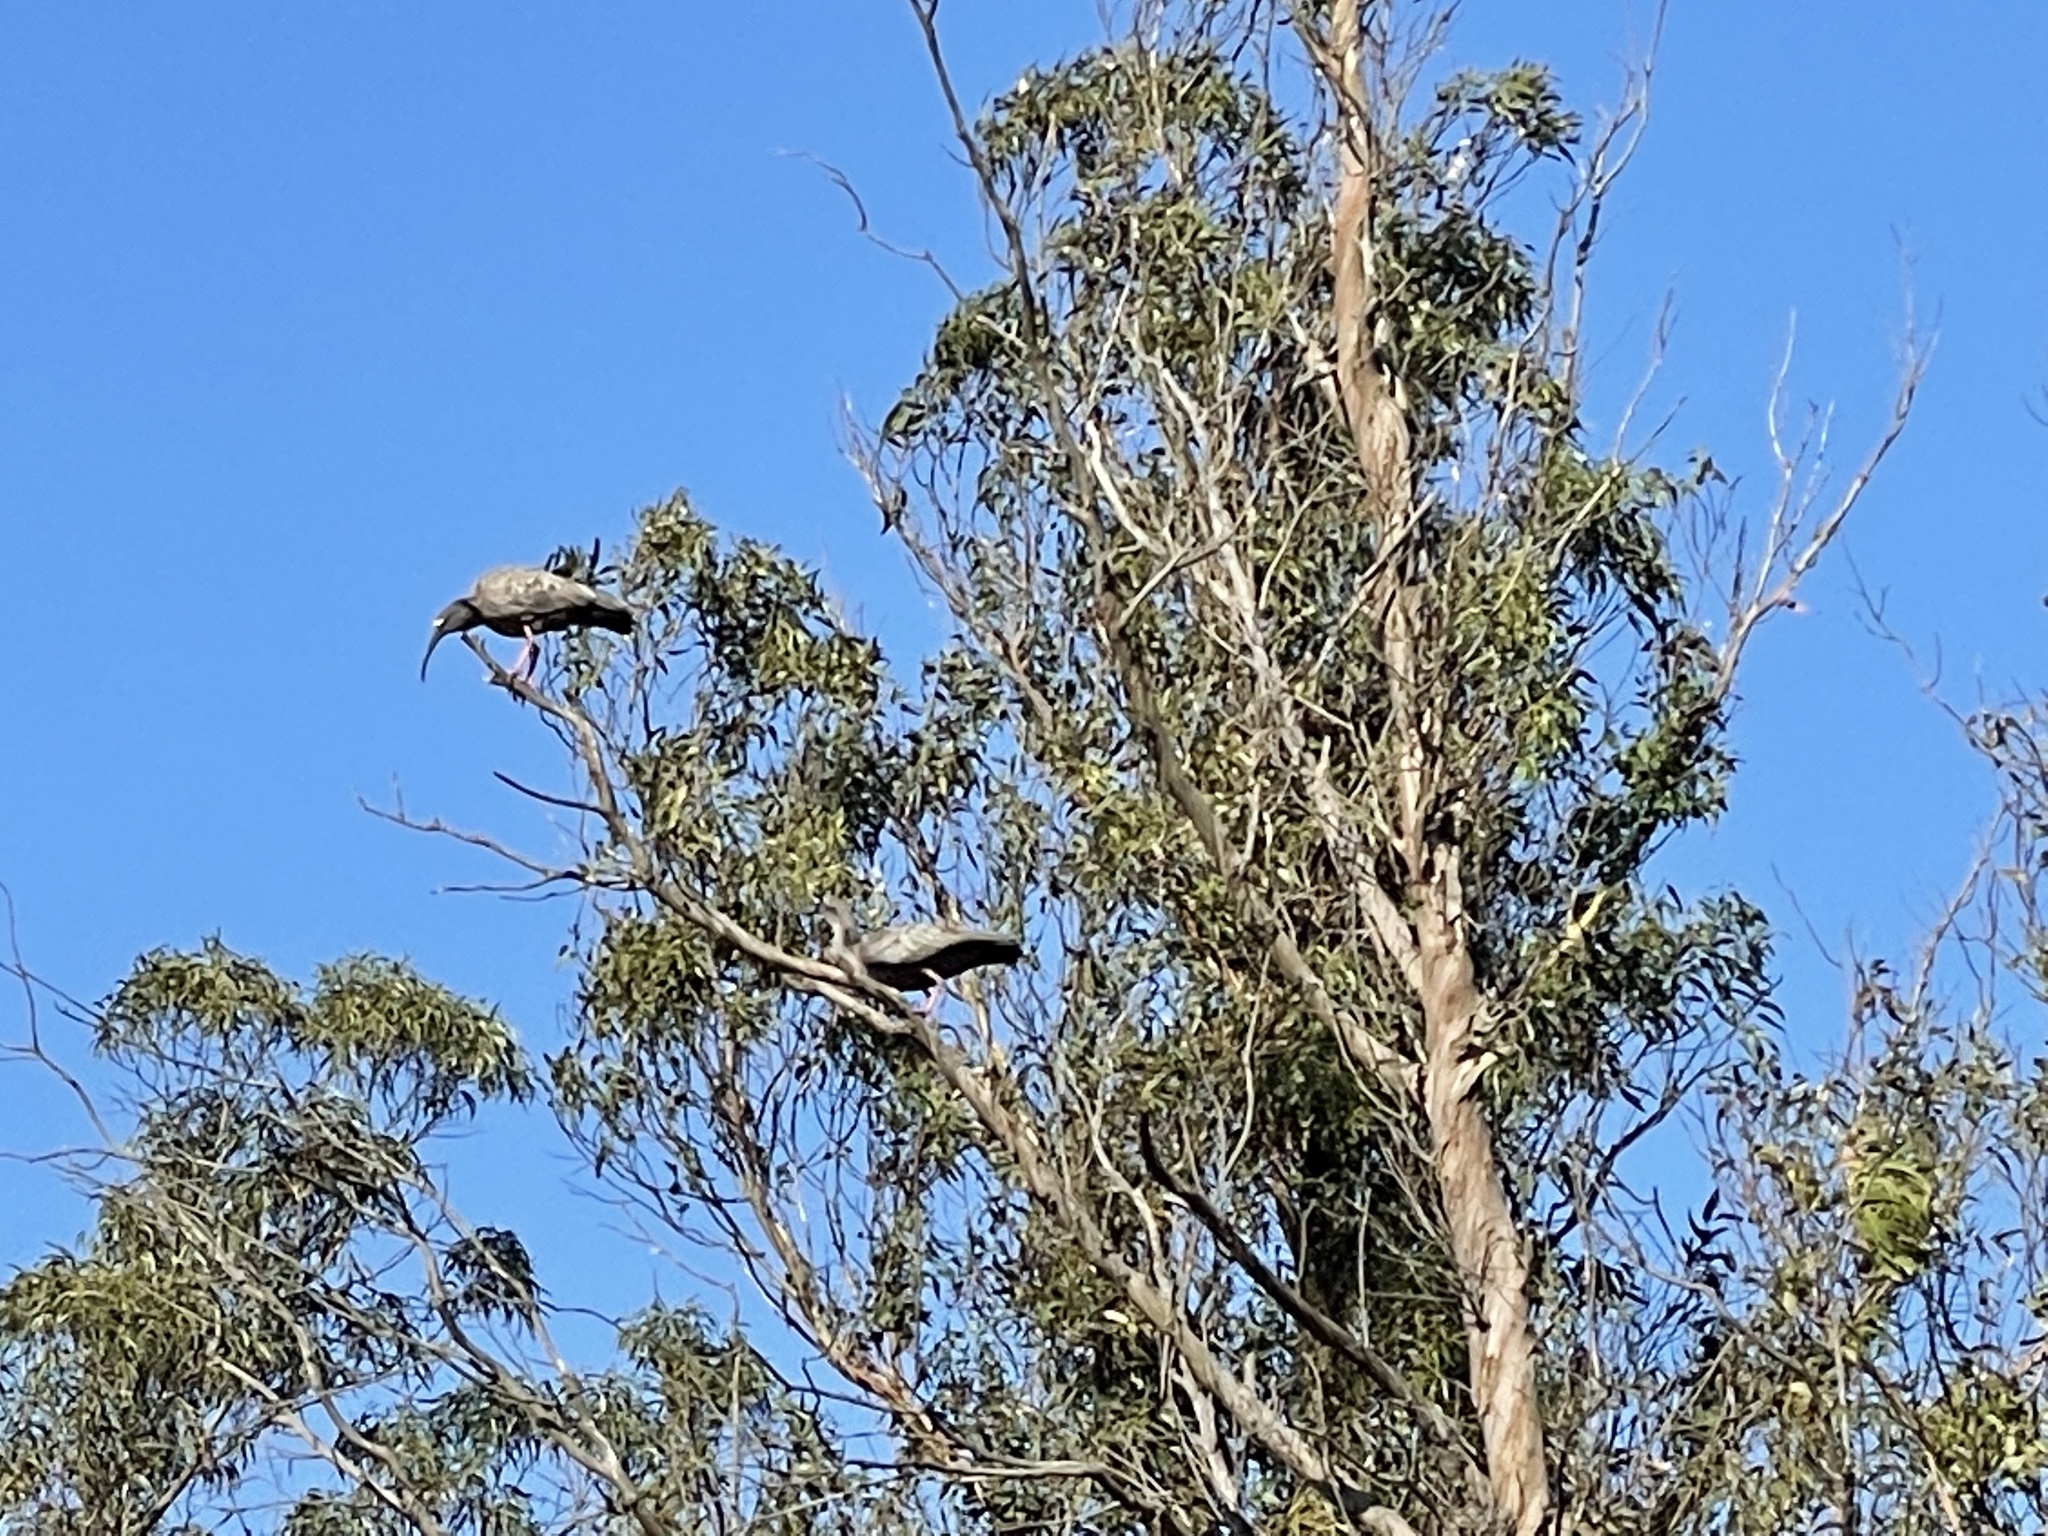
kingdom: Animalia
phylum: Chordata
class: Aves
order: Pelecaniformes
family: Threskiornithidae
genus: Theristicus
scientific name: Theristicus caerulescens
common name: Plumbeous ibis
